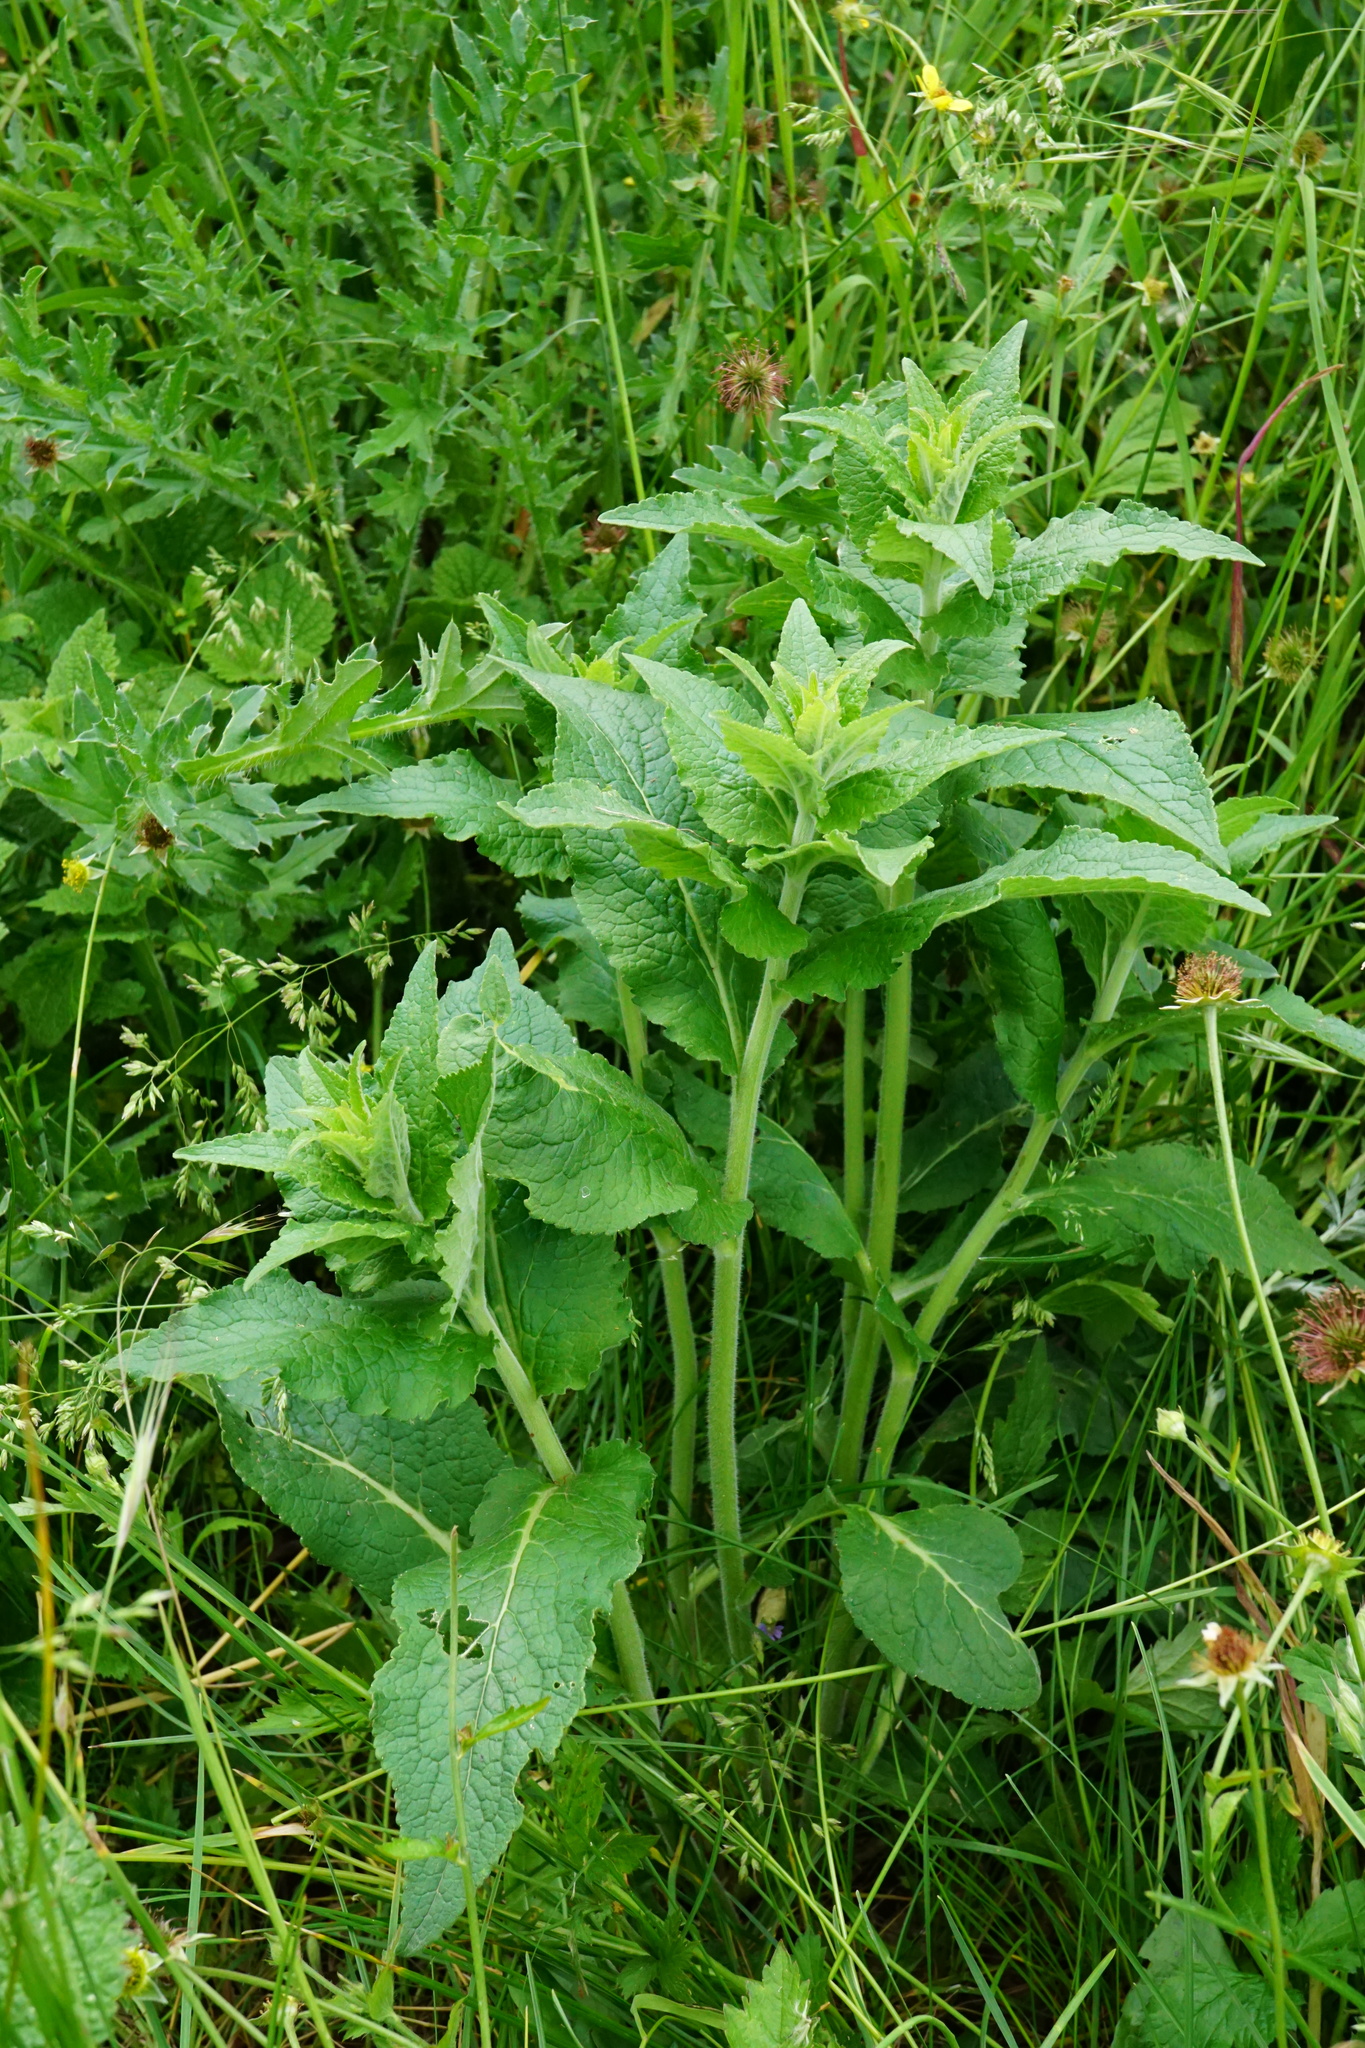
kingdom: Plantae
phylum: Tracheophyta
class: Magnoliopsida
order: Asterales
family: Campanulaceae
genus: Campanula
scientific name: Campanula bononiensis
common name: Pale bellflower
